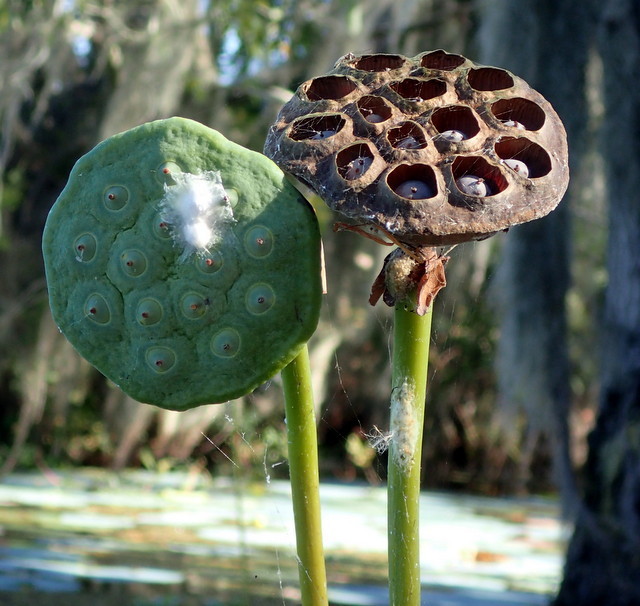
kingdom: Plantae
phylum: Tracheophyta
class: Magnoliopsida
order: Proteales
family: Nelumbonaceae
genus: Nelumbo
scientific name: Nelumbo lutea
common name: American lotus
